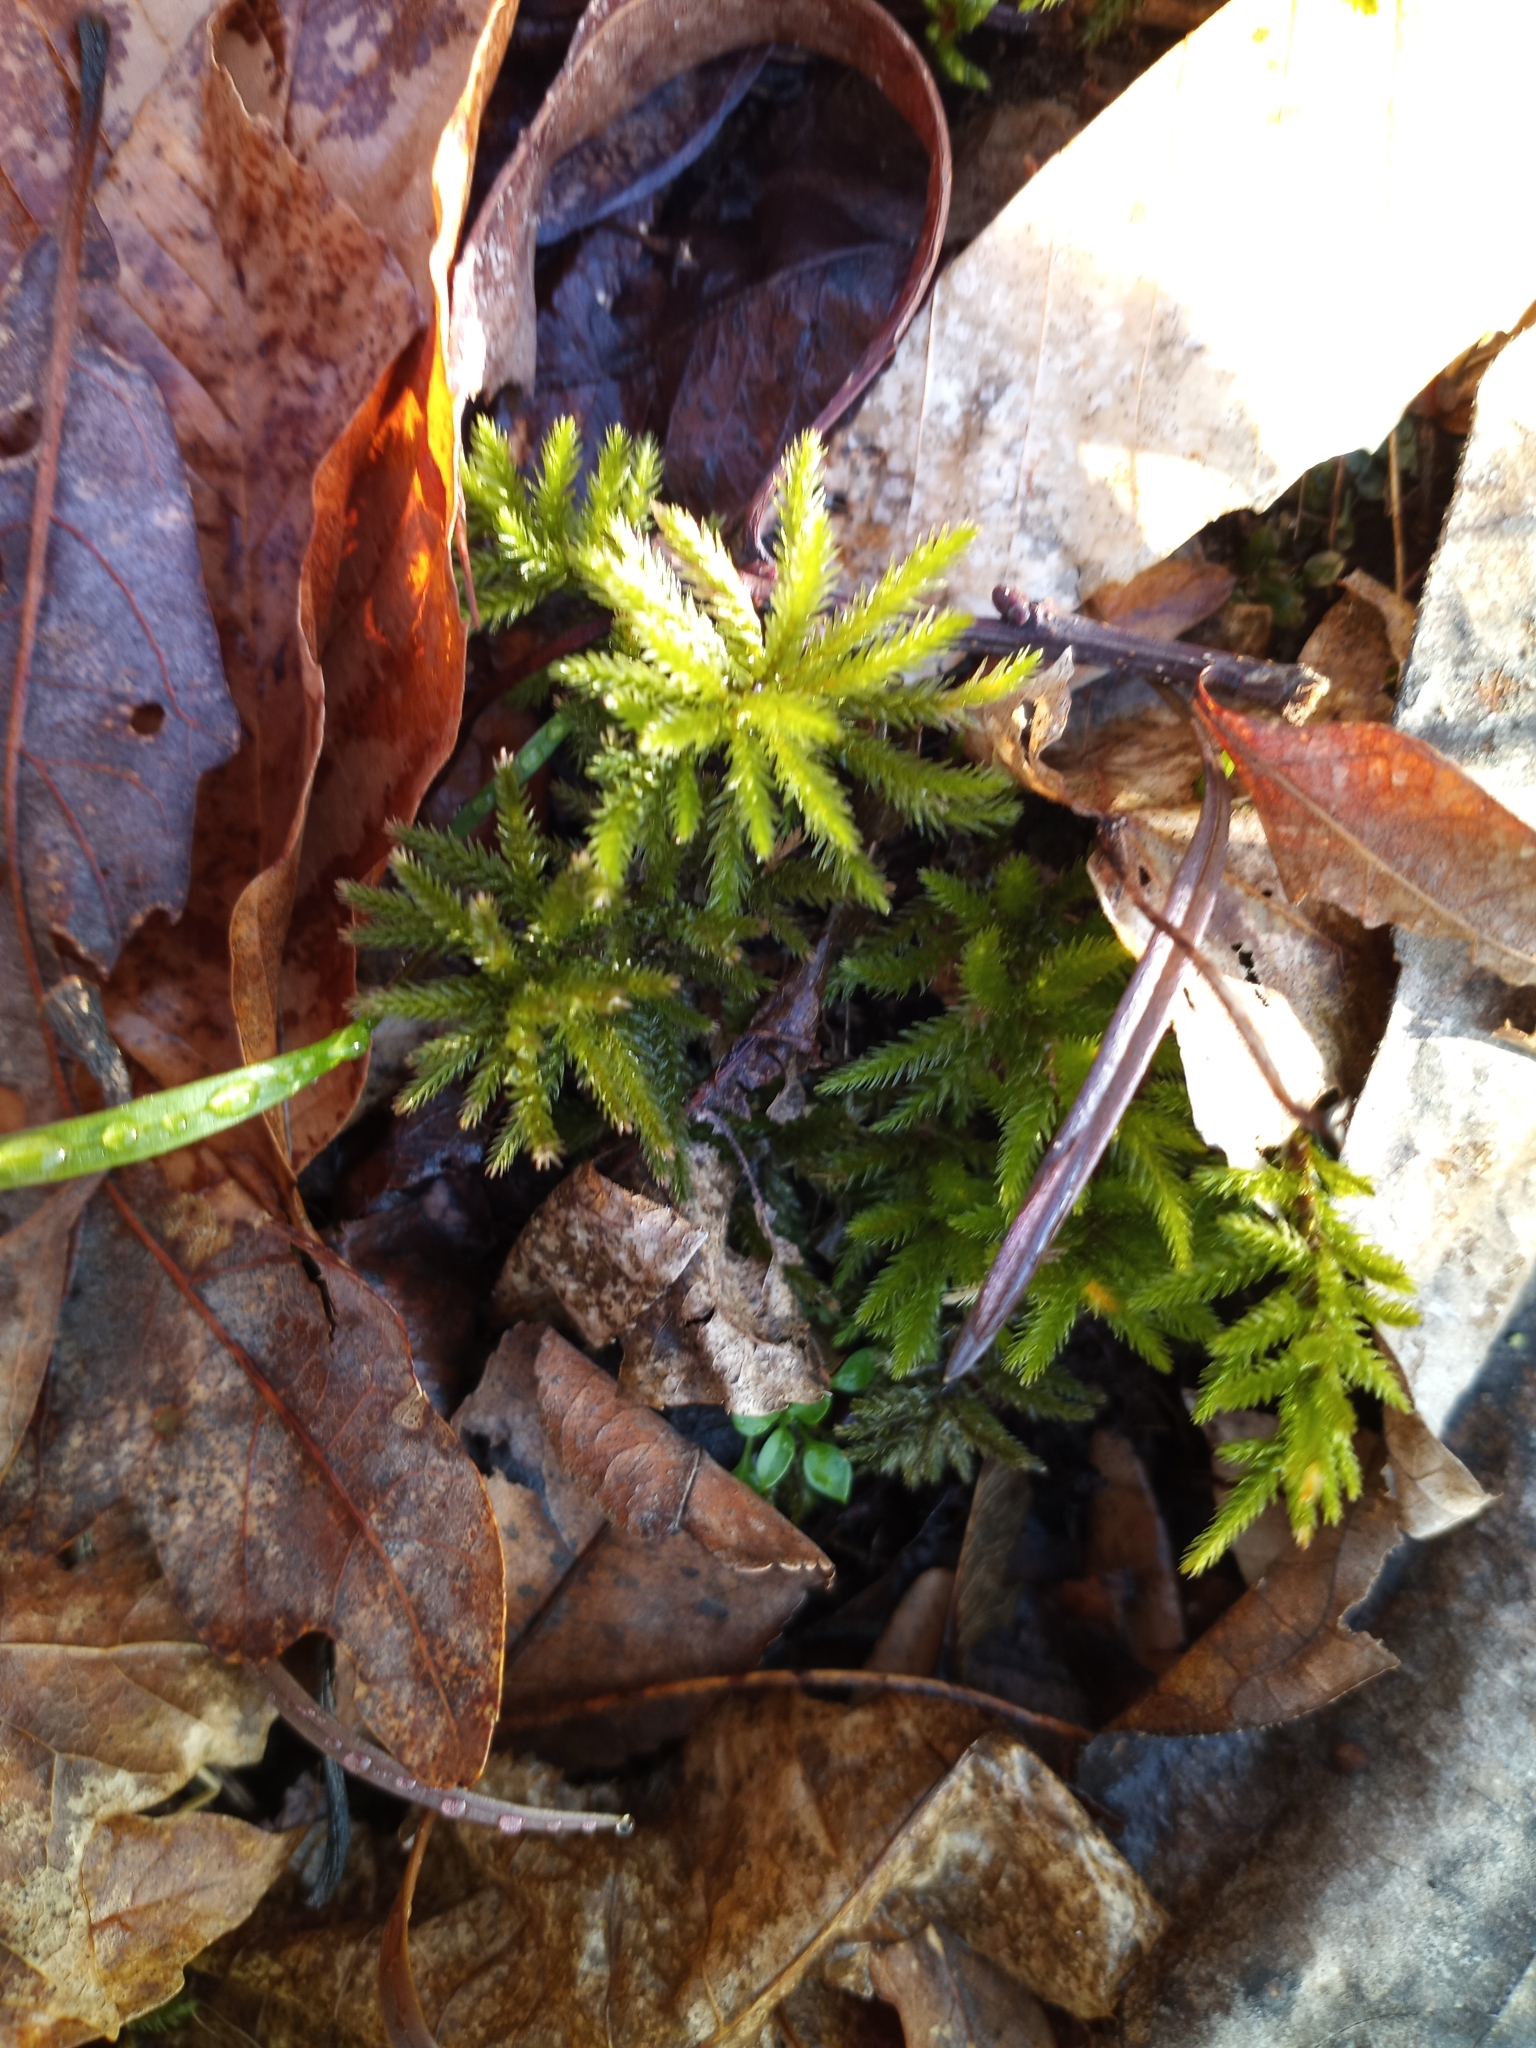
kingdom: Plantae
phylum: Bryophyta
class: Bryopsida
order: Hypnales
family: Climaciaceae
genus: Climacium
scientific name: Climacium americanum
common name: American tree moss
